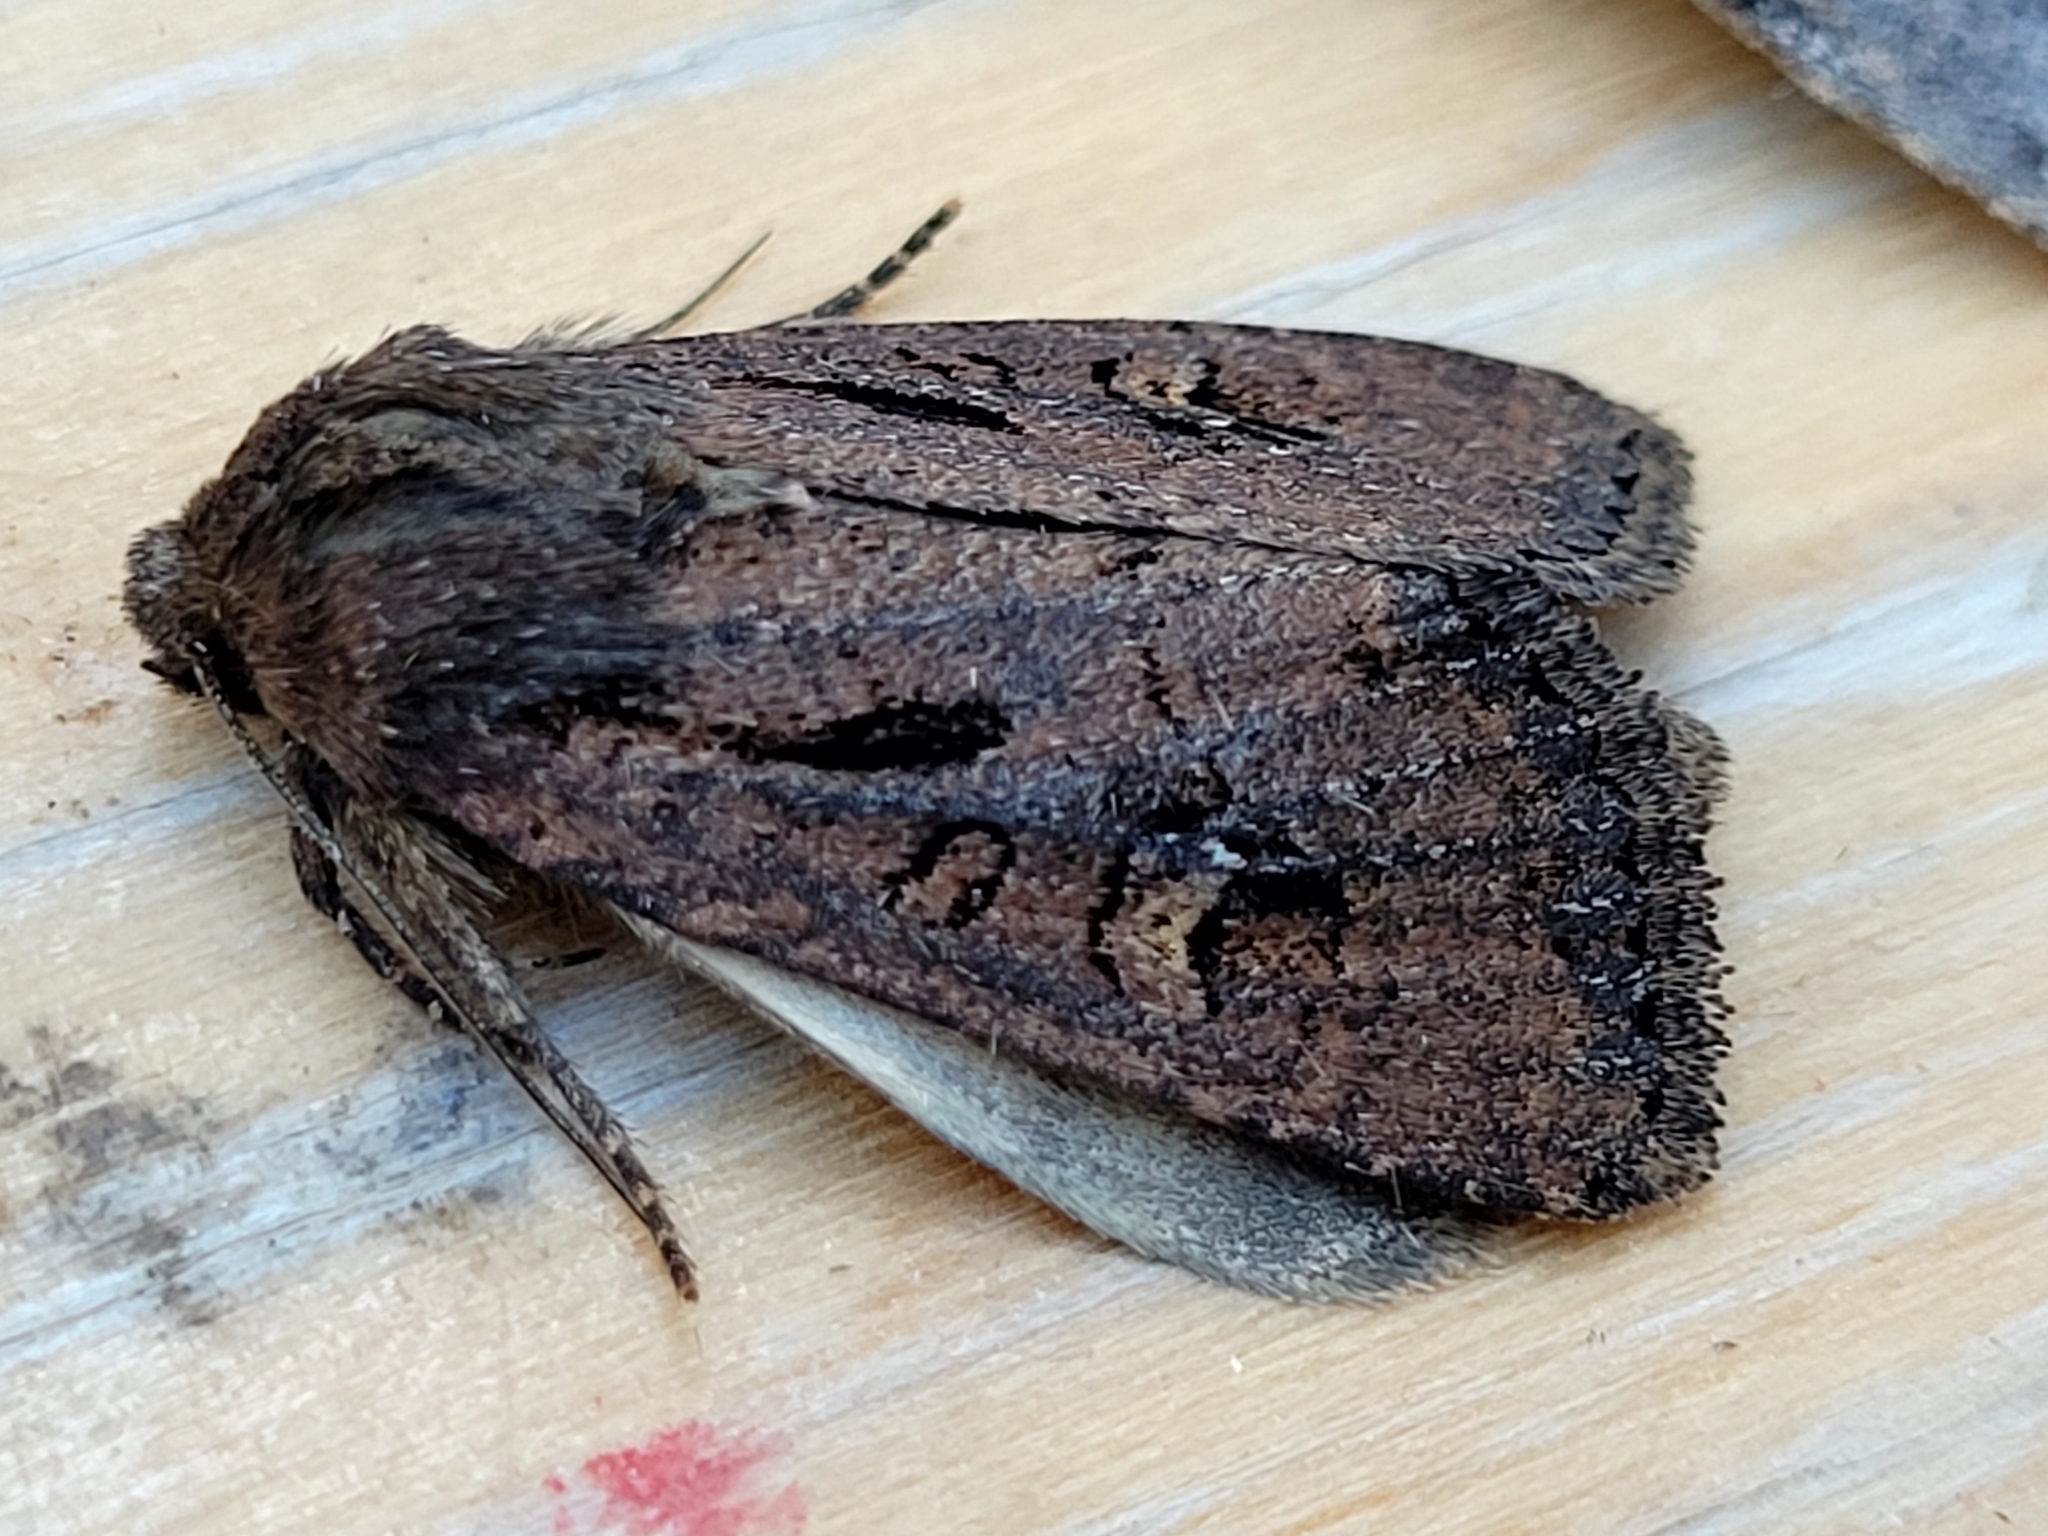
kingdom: Animalia
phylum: Arthropoda
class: Insecta
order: Lepidoptera
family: Noctuidae
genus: Resapamea
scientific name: Resapamea passer
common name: Dock rustic moth
